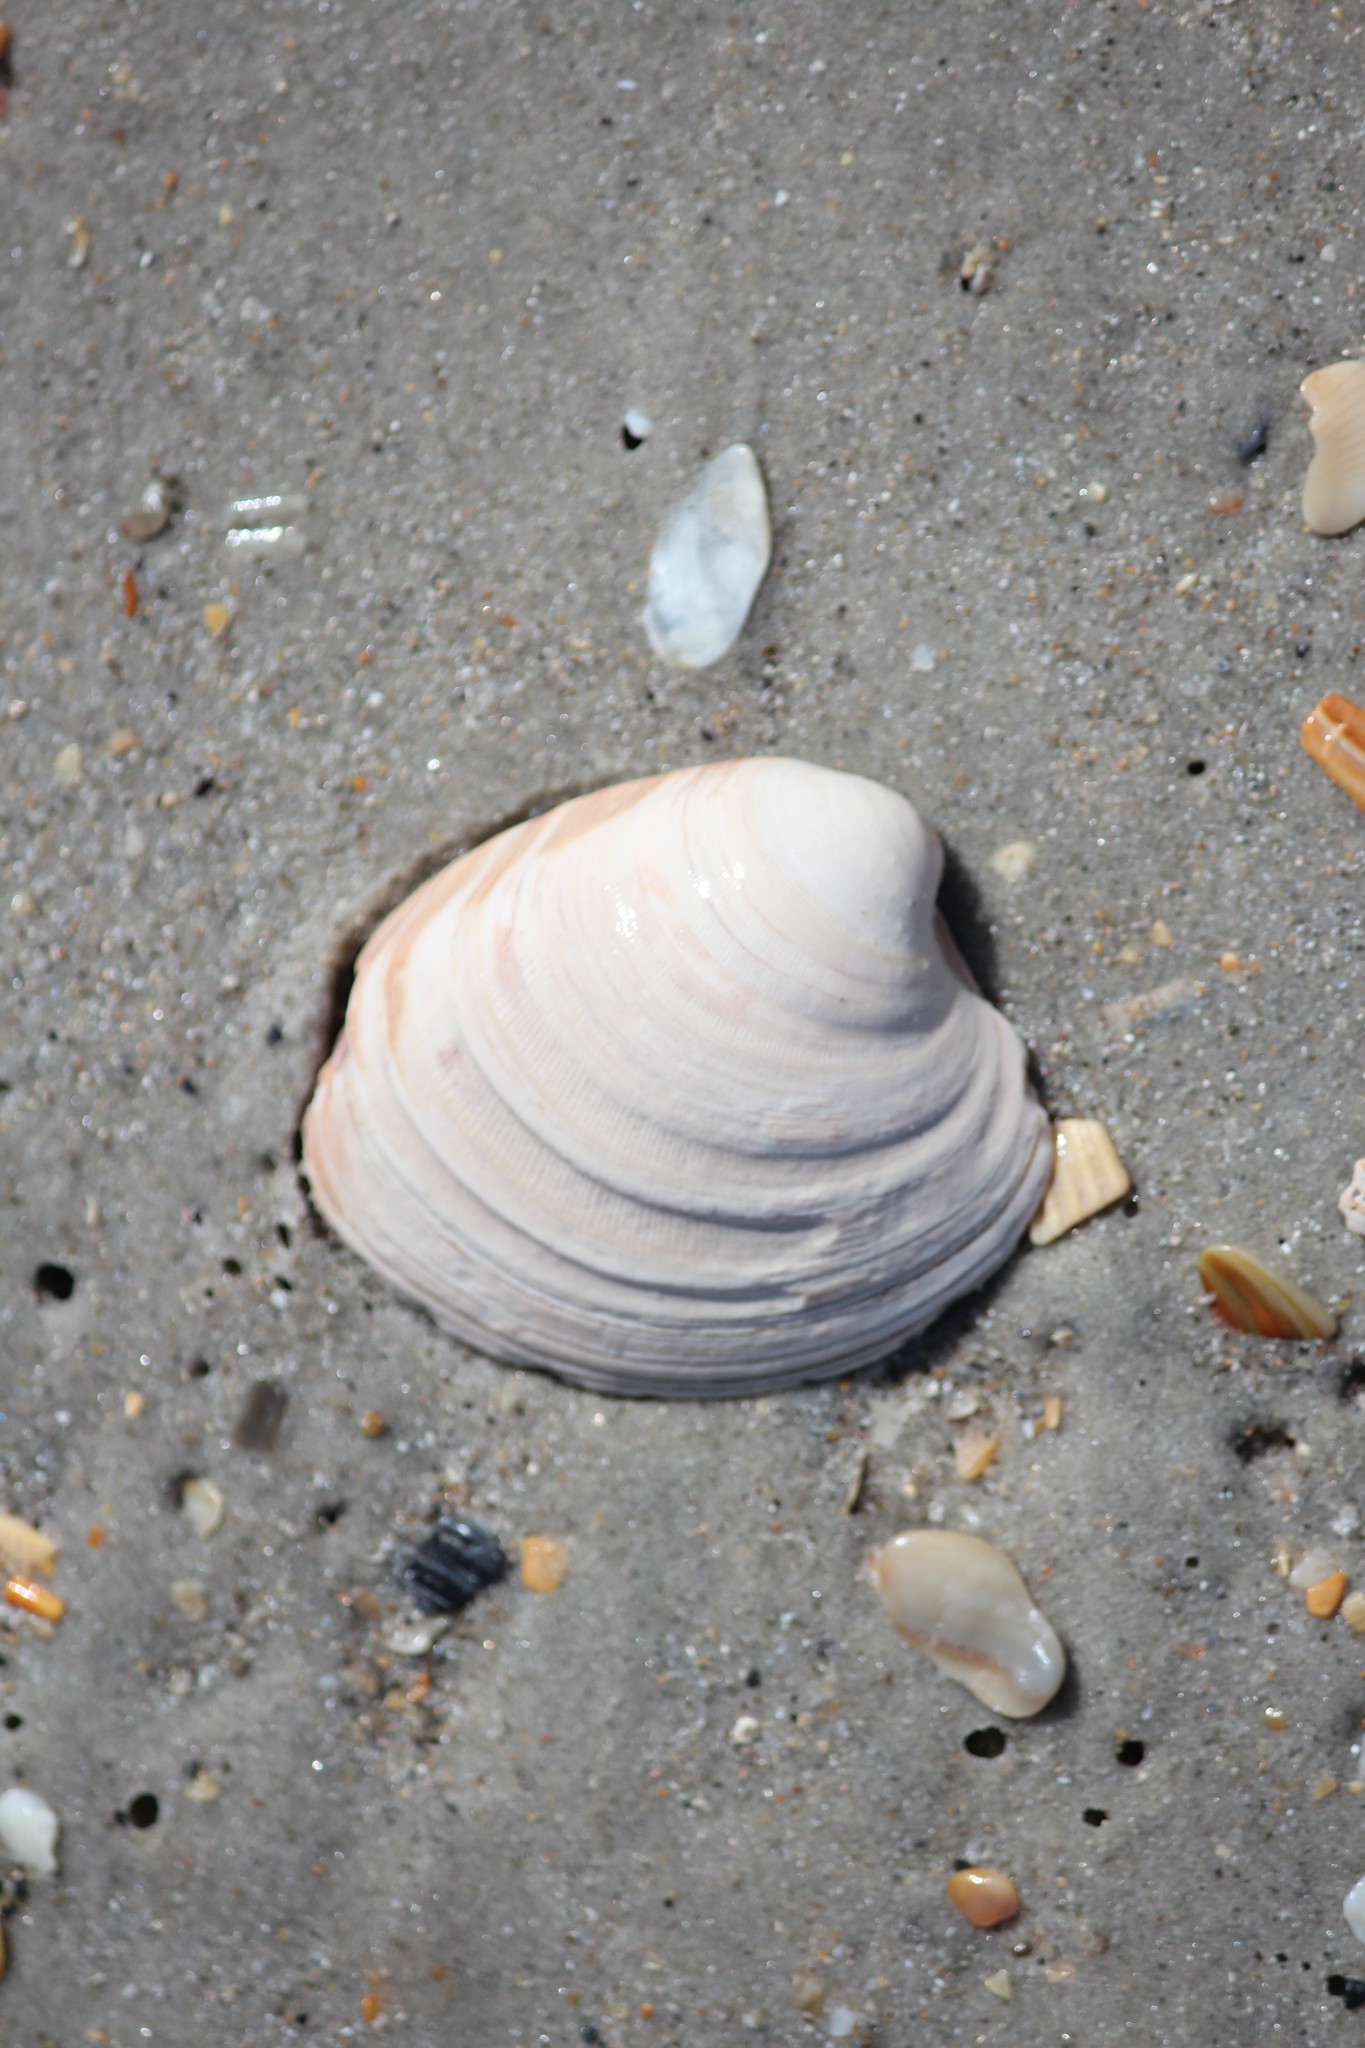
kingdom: Animalia
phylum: Mollusca
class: Bivalvia
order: Venerida
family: Veneridae
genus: Mercenaria
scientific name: Mercenaria mercenaria
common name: American hard-shelled clam
